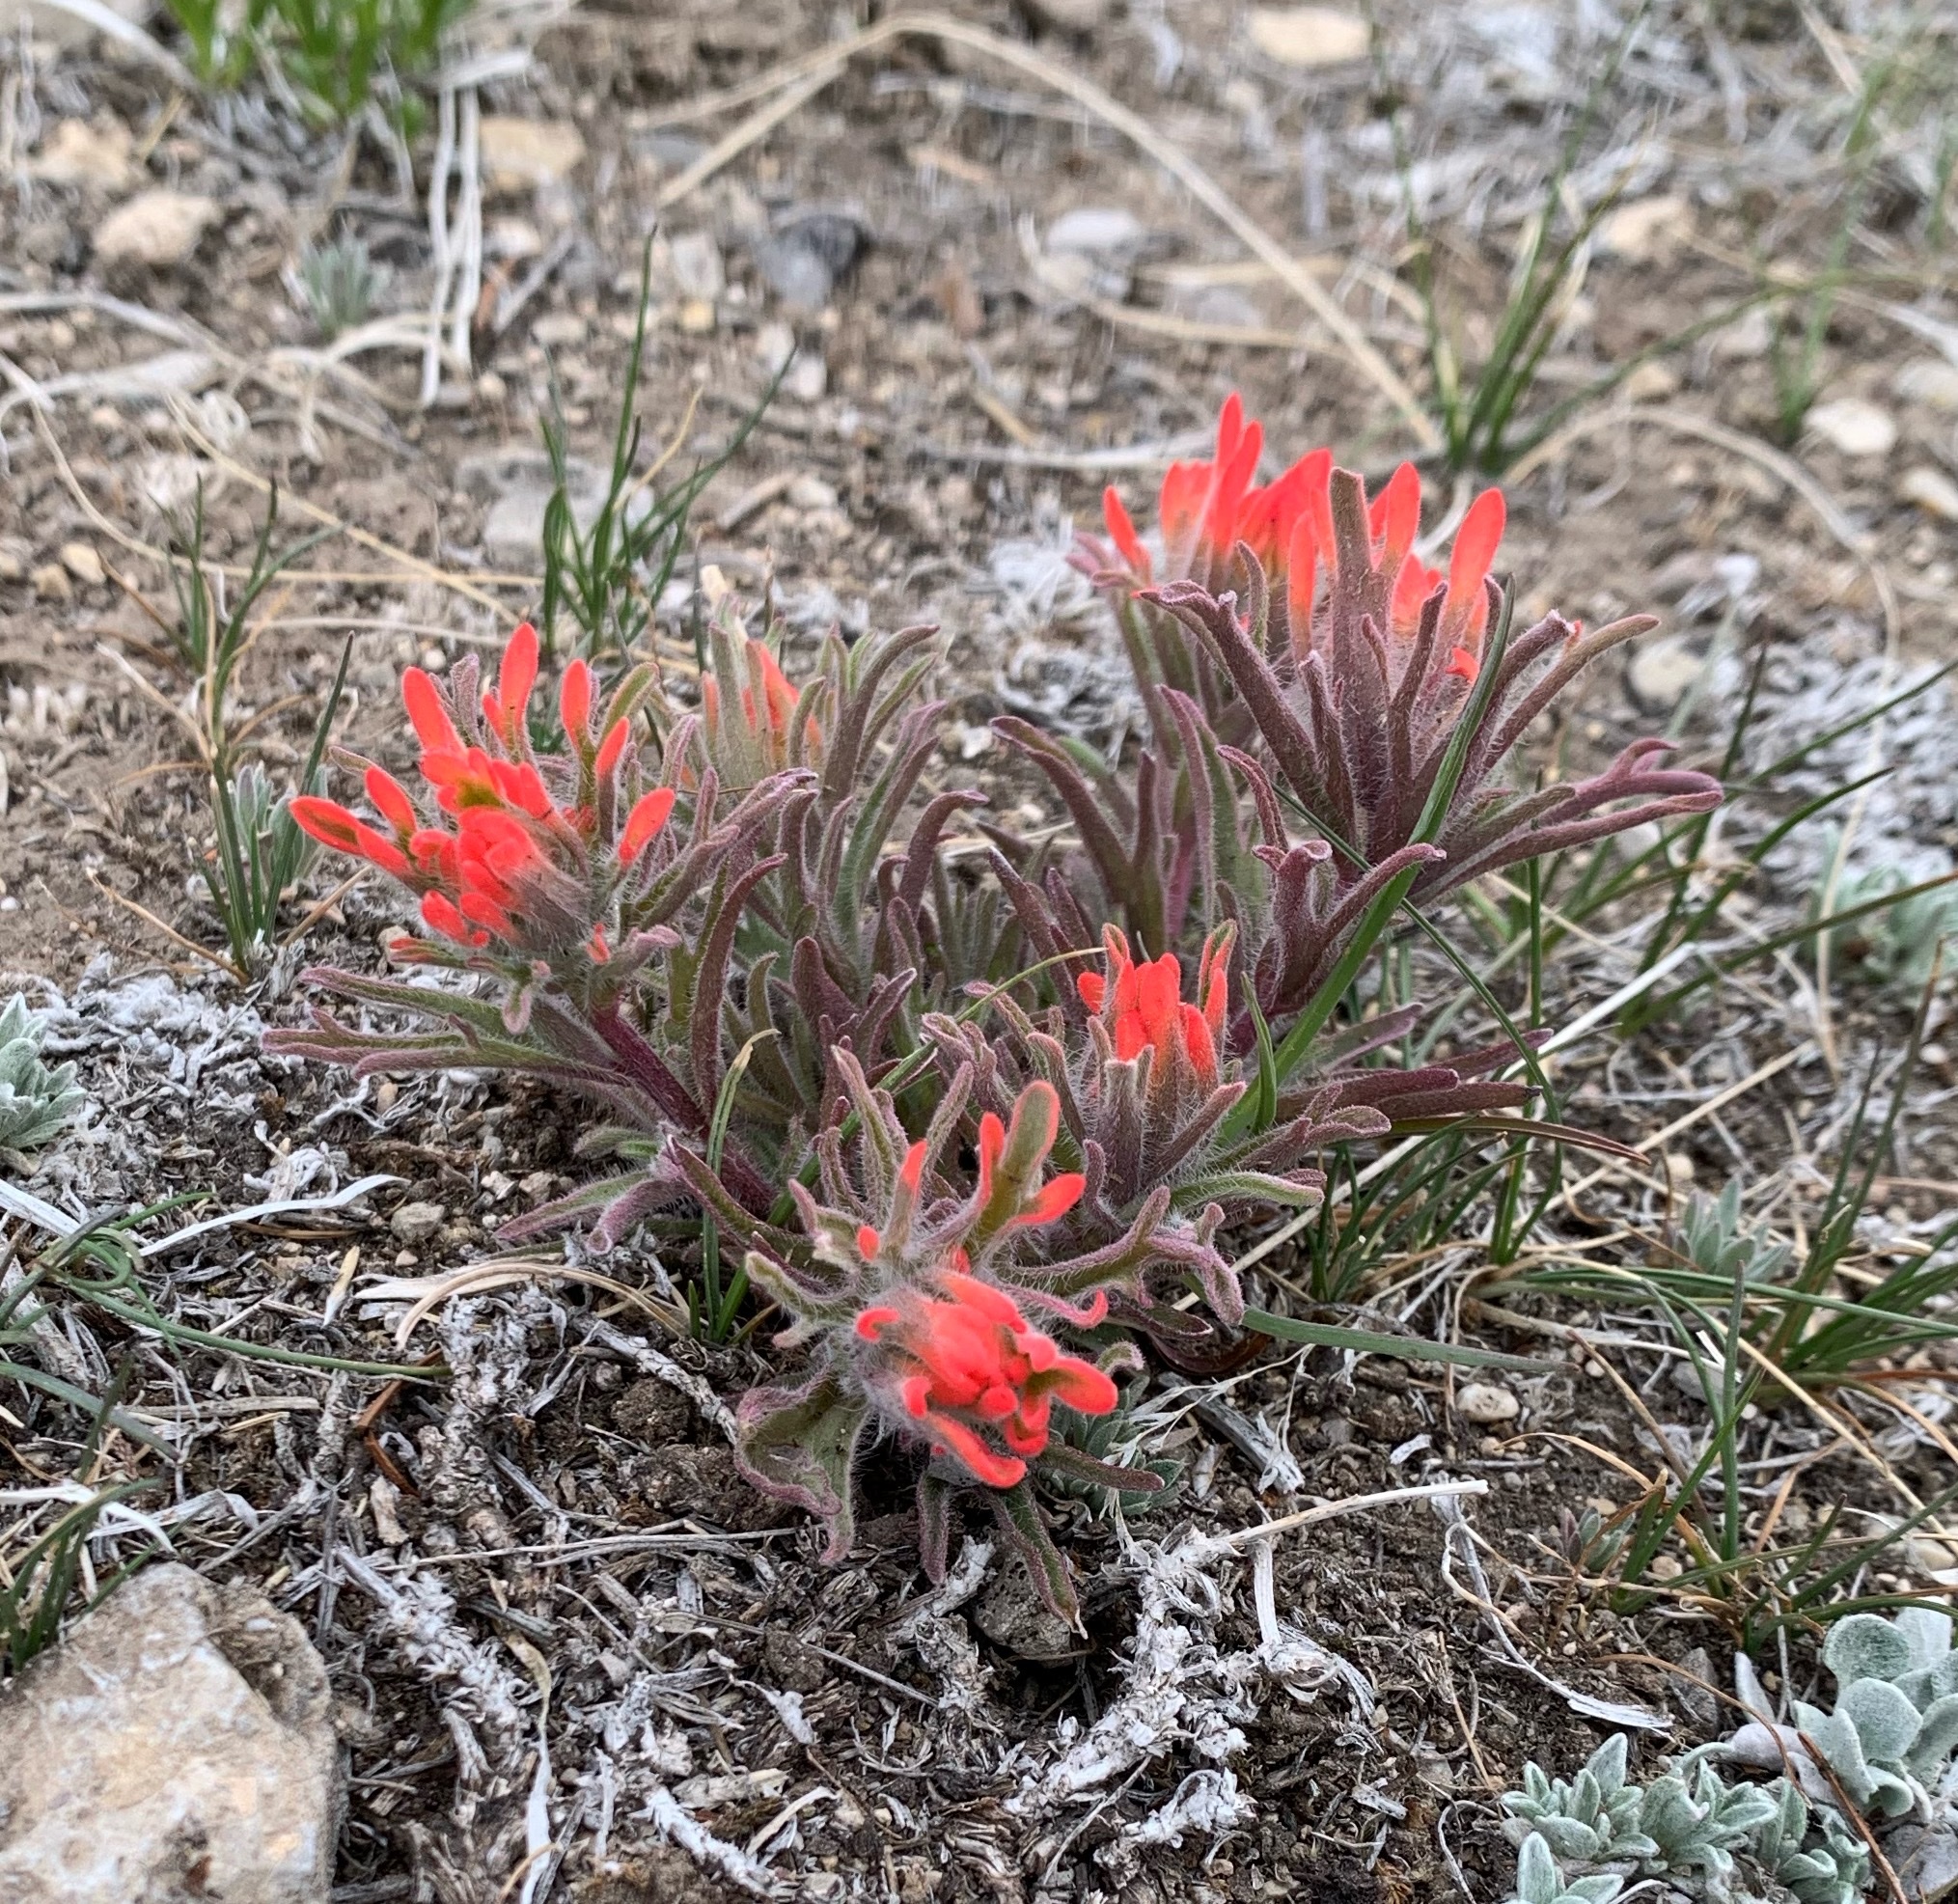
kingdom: Plantae
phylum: Tracheophyta
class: Magnoliopsida
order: Lamiales
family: Orobanchaceae
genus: Castilleja
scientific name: Castilleja chromosa
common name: Desert paintbrush
